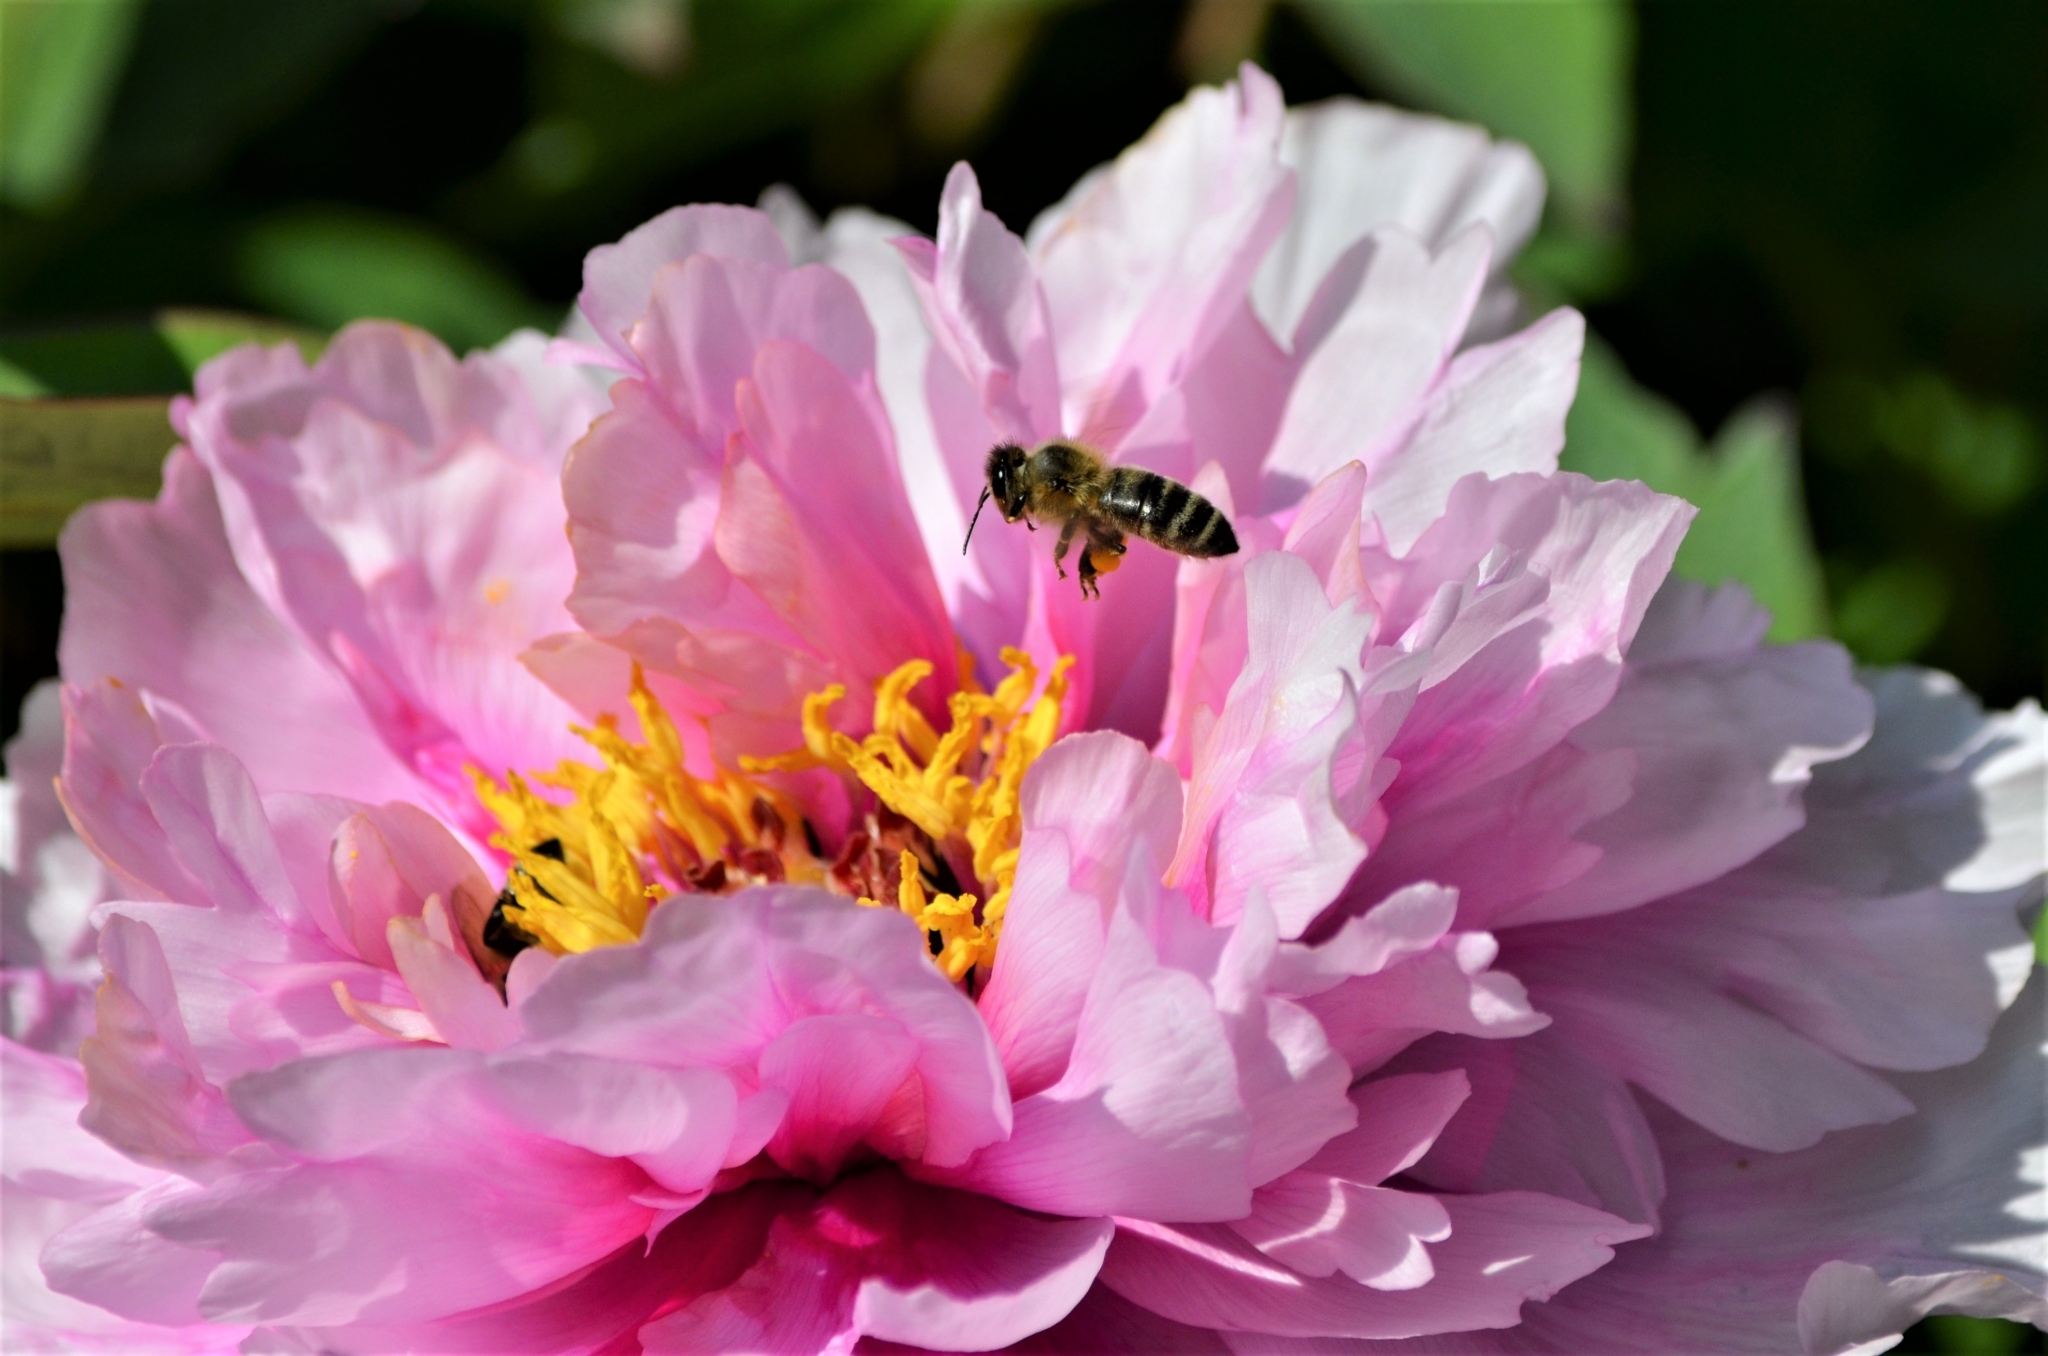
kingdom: Animalia
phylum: Arthropoda
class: Insecta
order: Hymenoptera
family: Apidae
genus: Apis
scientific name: Apis mellifera
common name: Honey bee
